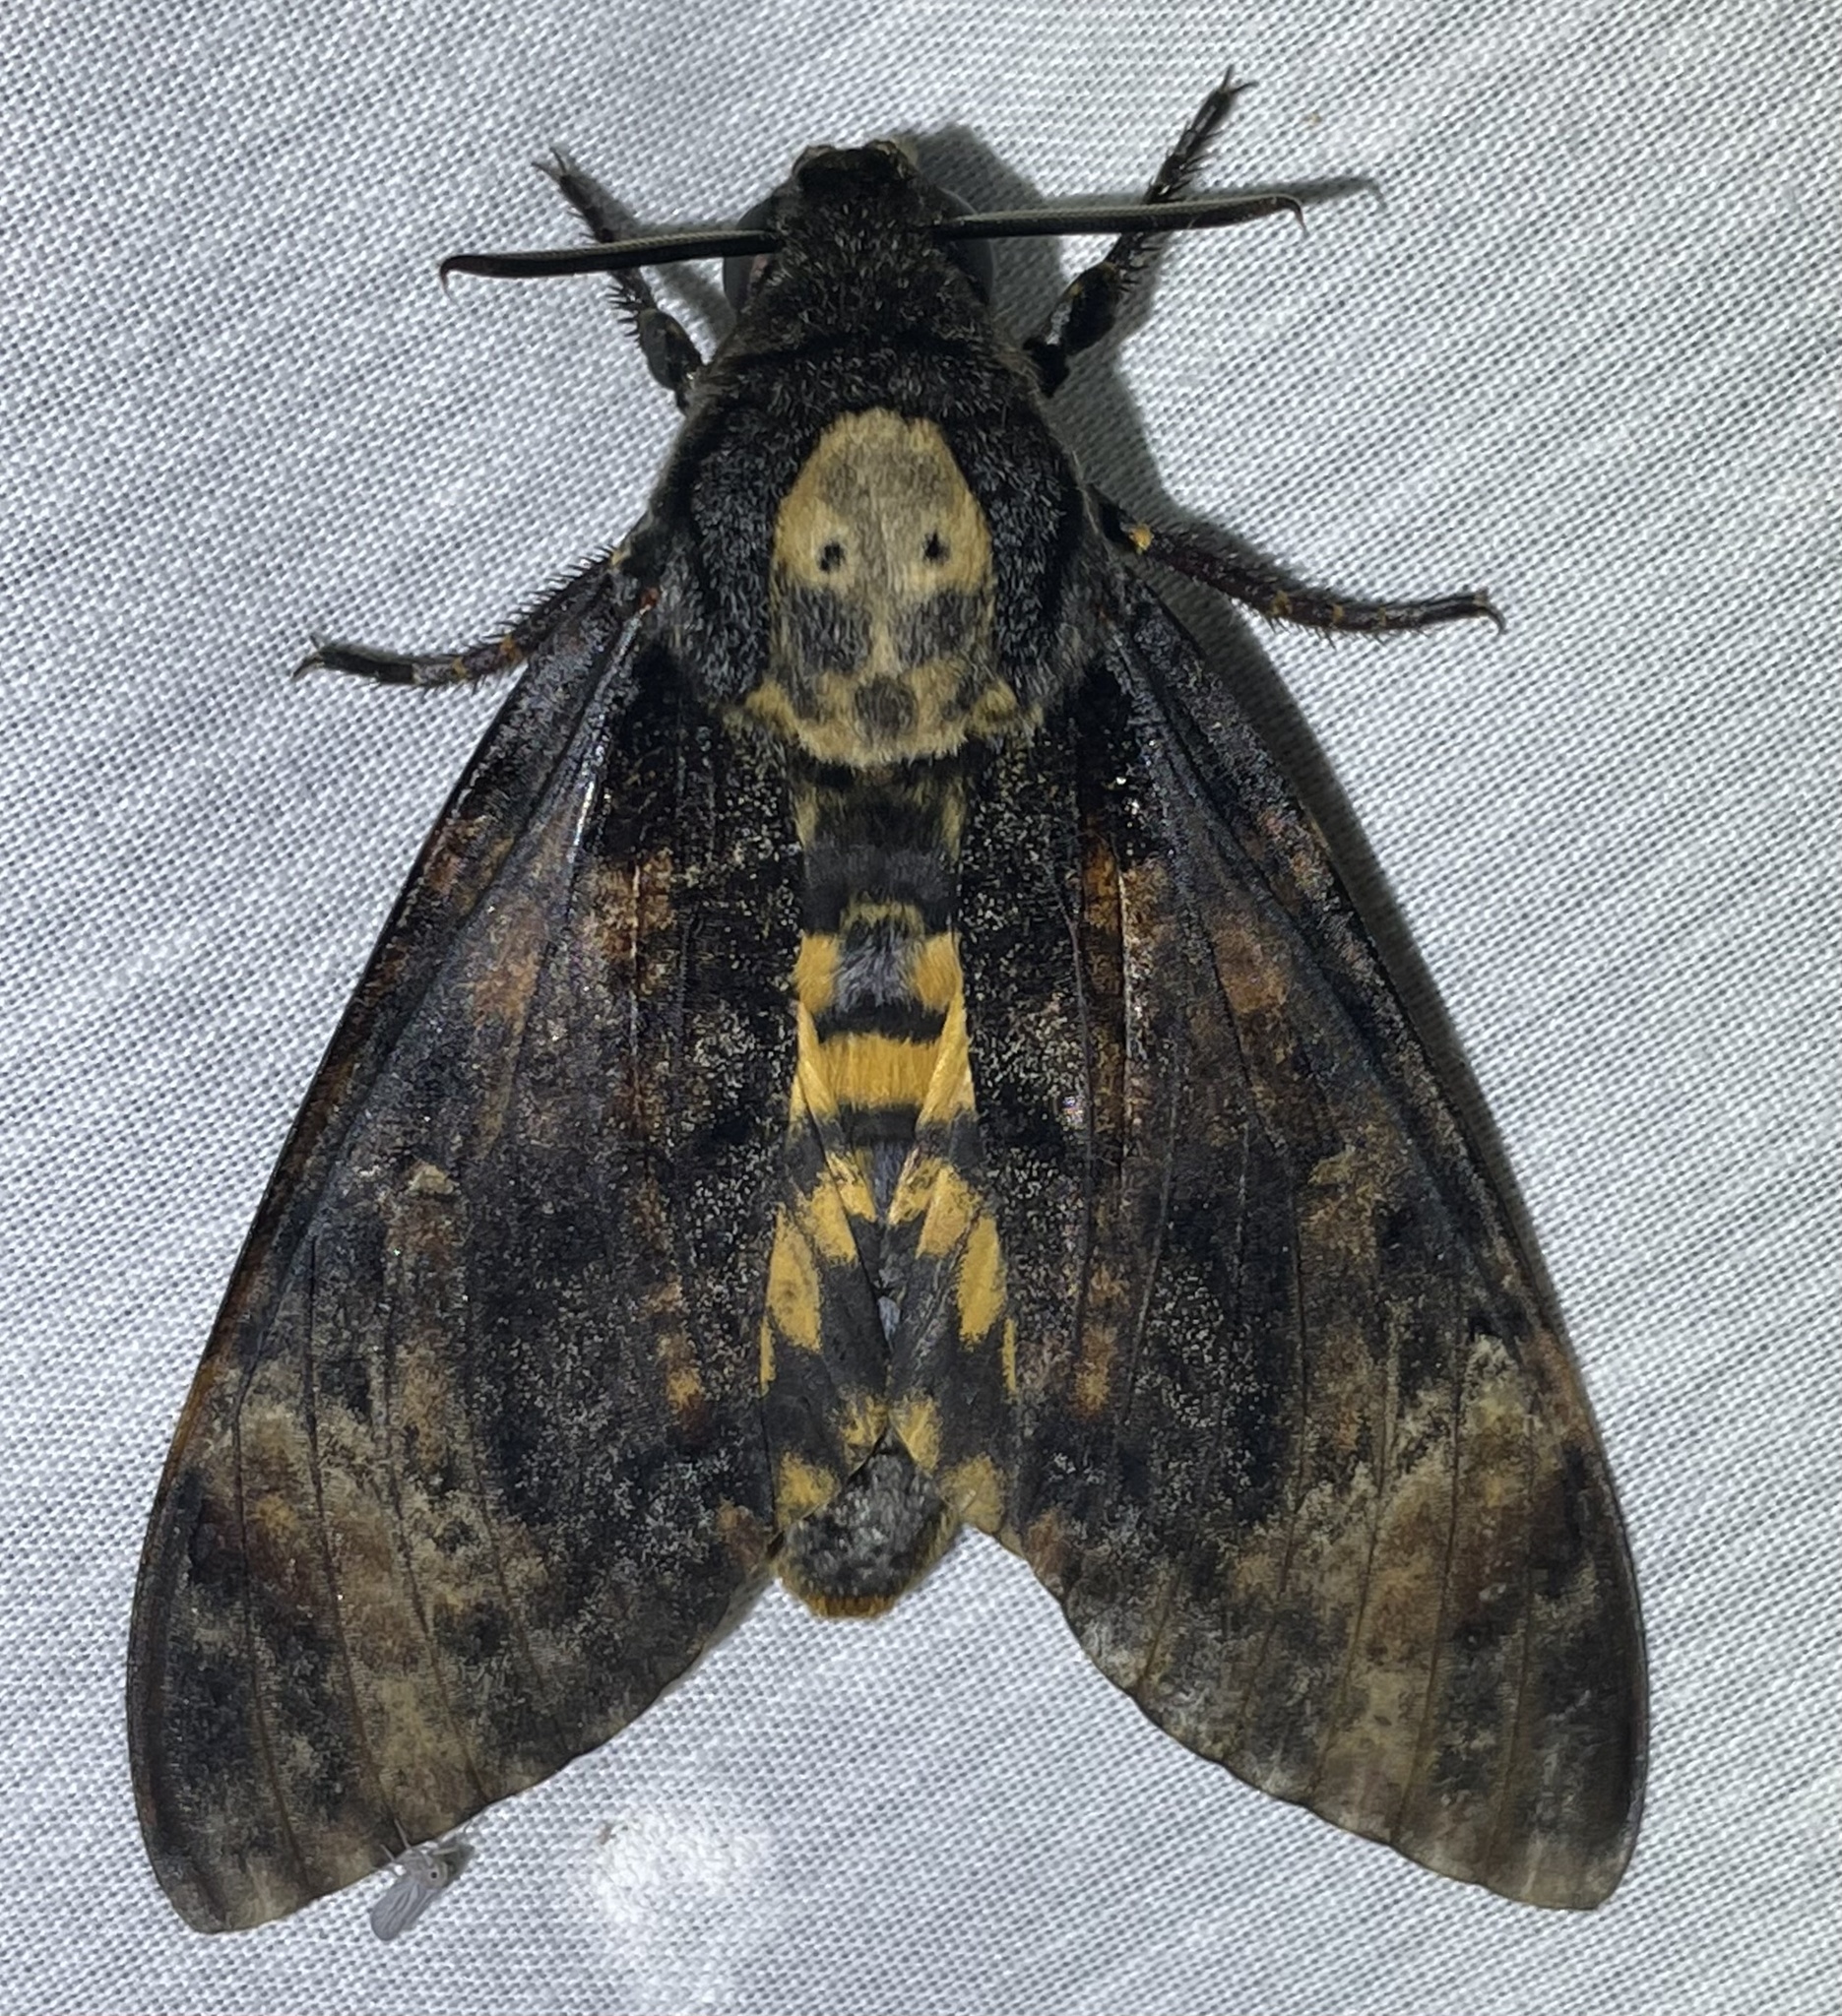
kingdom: Animalia
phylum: Arthropoda
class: Insecta
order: Lepidoptera
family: Sphingidae
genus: Acherontia
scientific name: Acherontia atropos
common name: Death's-head hawk moth
